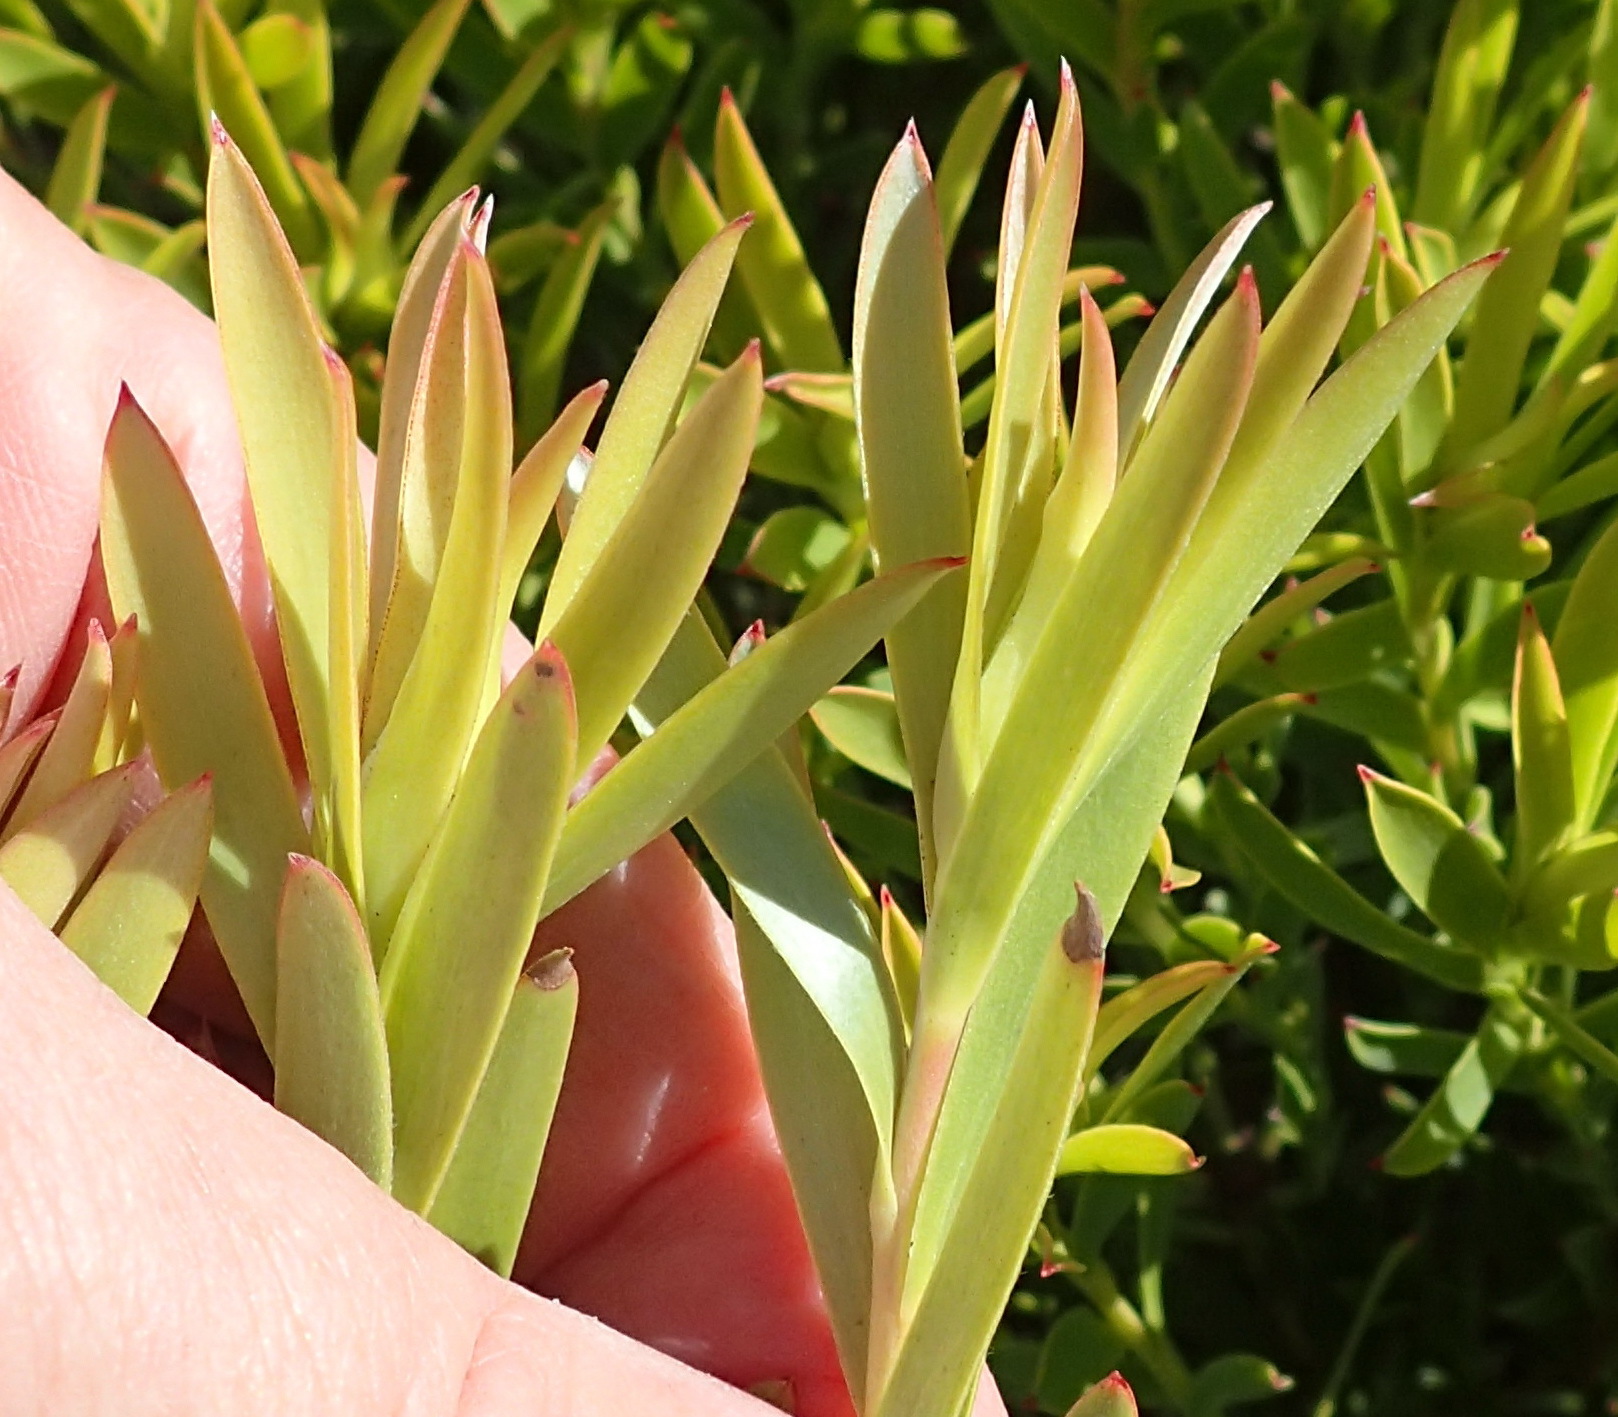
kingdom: Plantae
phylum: Tracheophyta
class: Magnoliopsida
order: Proteales
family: Proteaceae
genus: Leucadendron
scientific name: Leucadendron meridianum
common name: Limestone conebush
